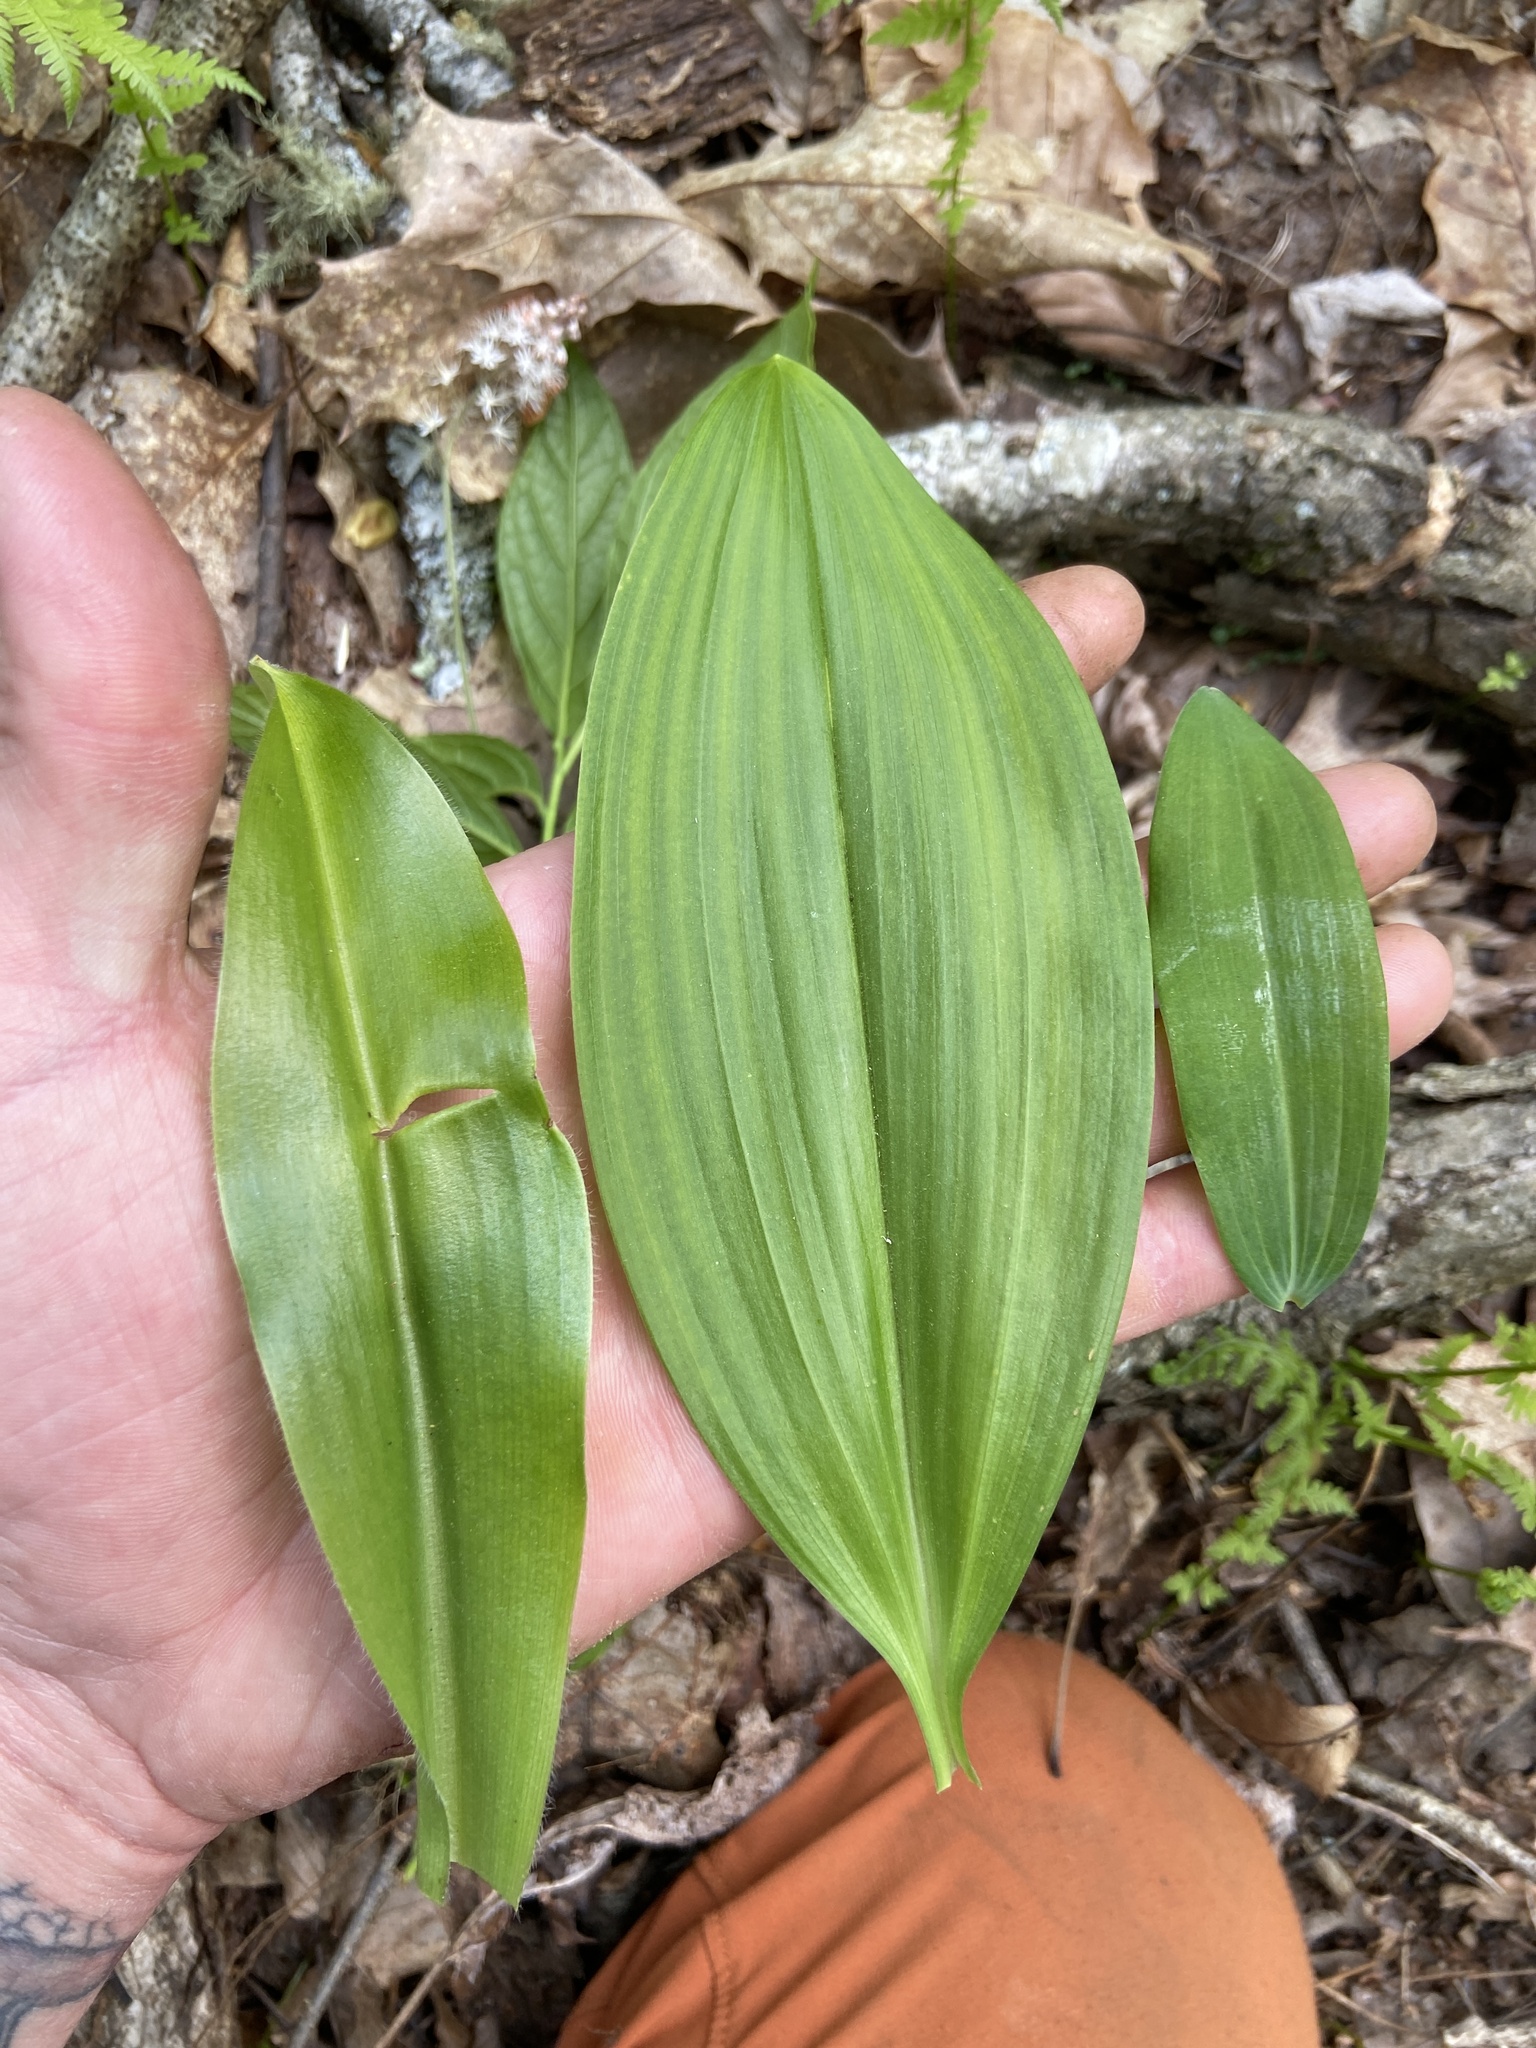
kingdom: Plantae
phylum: Tracheophyta
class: Liliopsida
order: Liliales
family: Liliaceae
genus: Clintonia
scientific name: Clintonia umbellulata
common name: Speckle wood-lily
